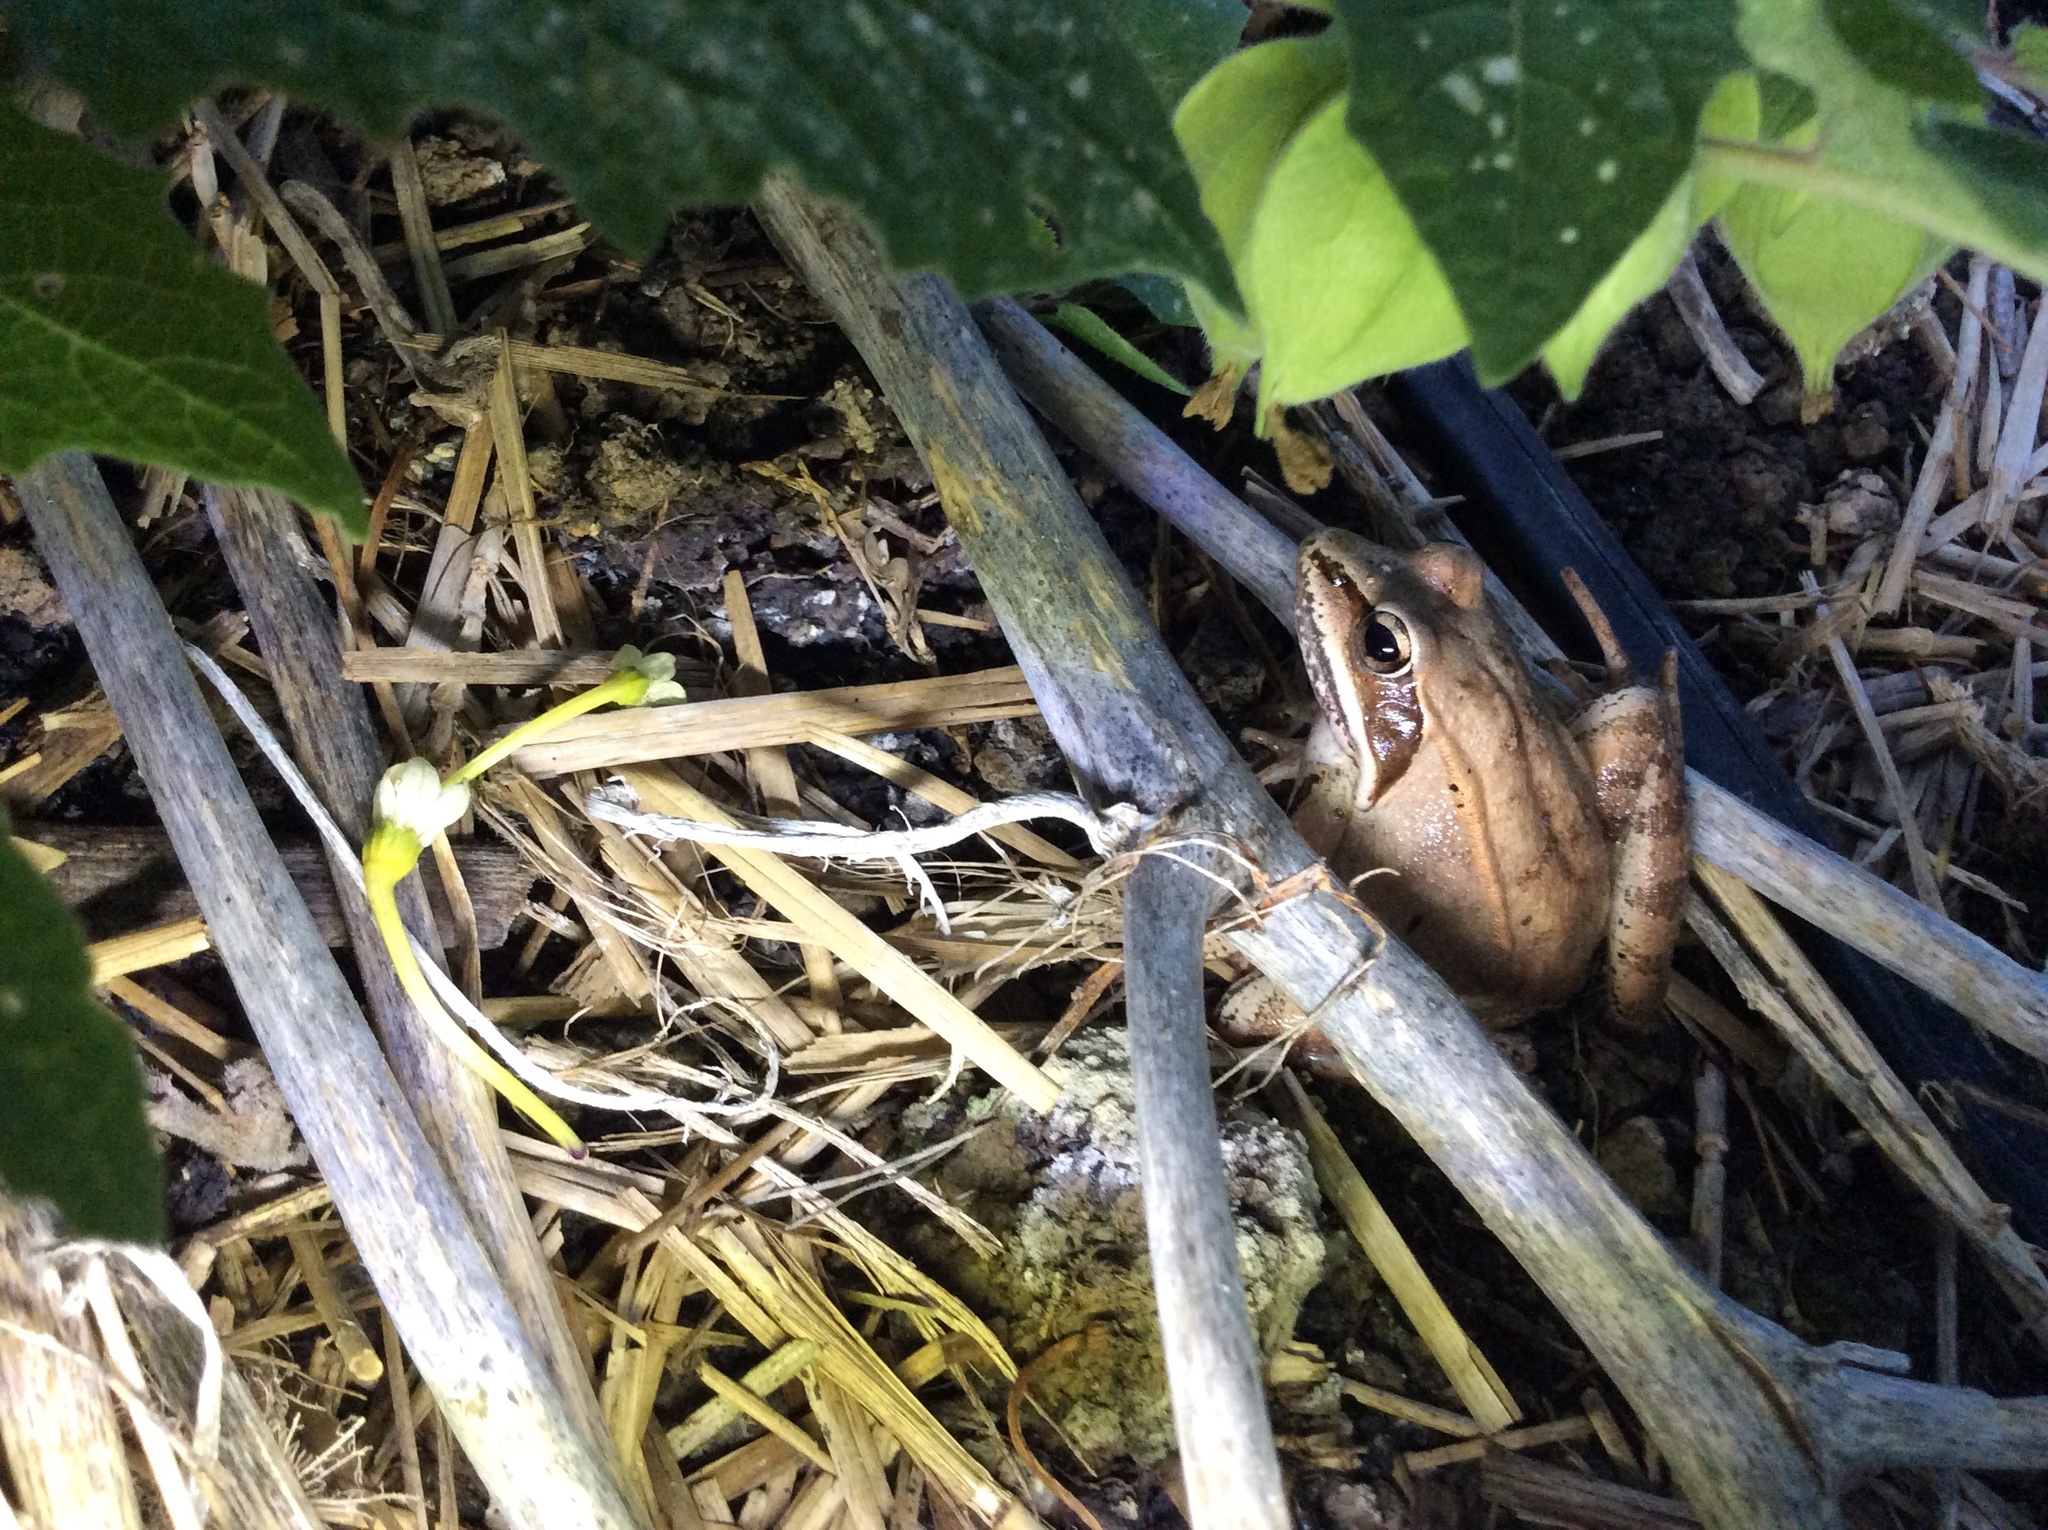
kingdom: Animalia
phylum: Chordata
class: Amphibia
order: Anura
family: Ranidae
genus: Lithobates
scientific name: Lithobates sylvaticus
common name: Wood frog
